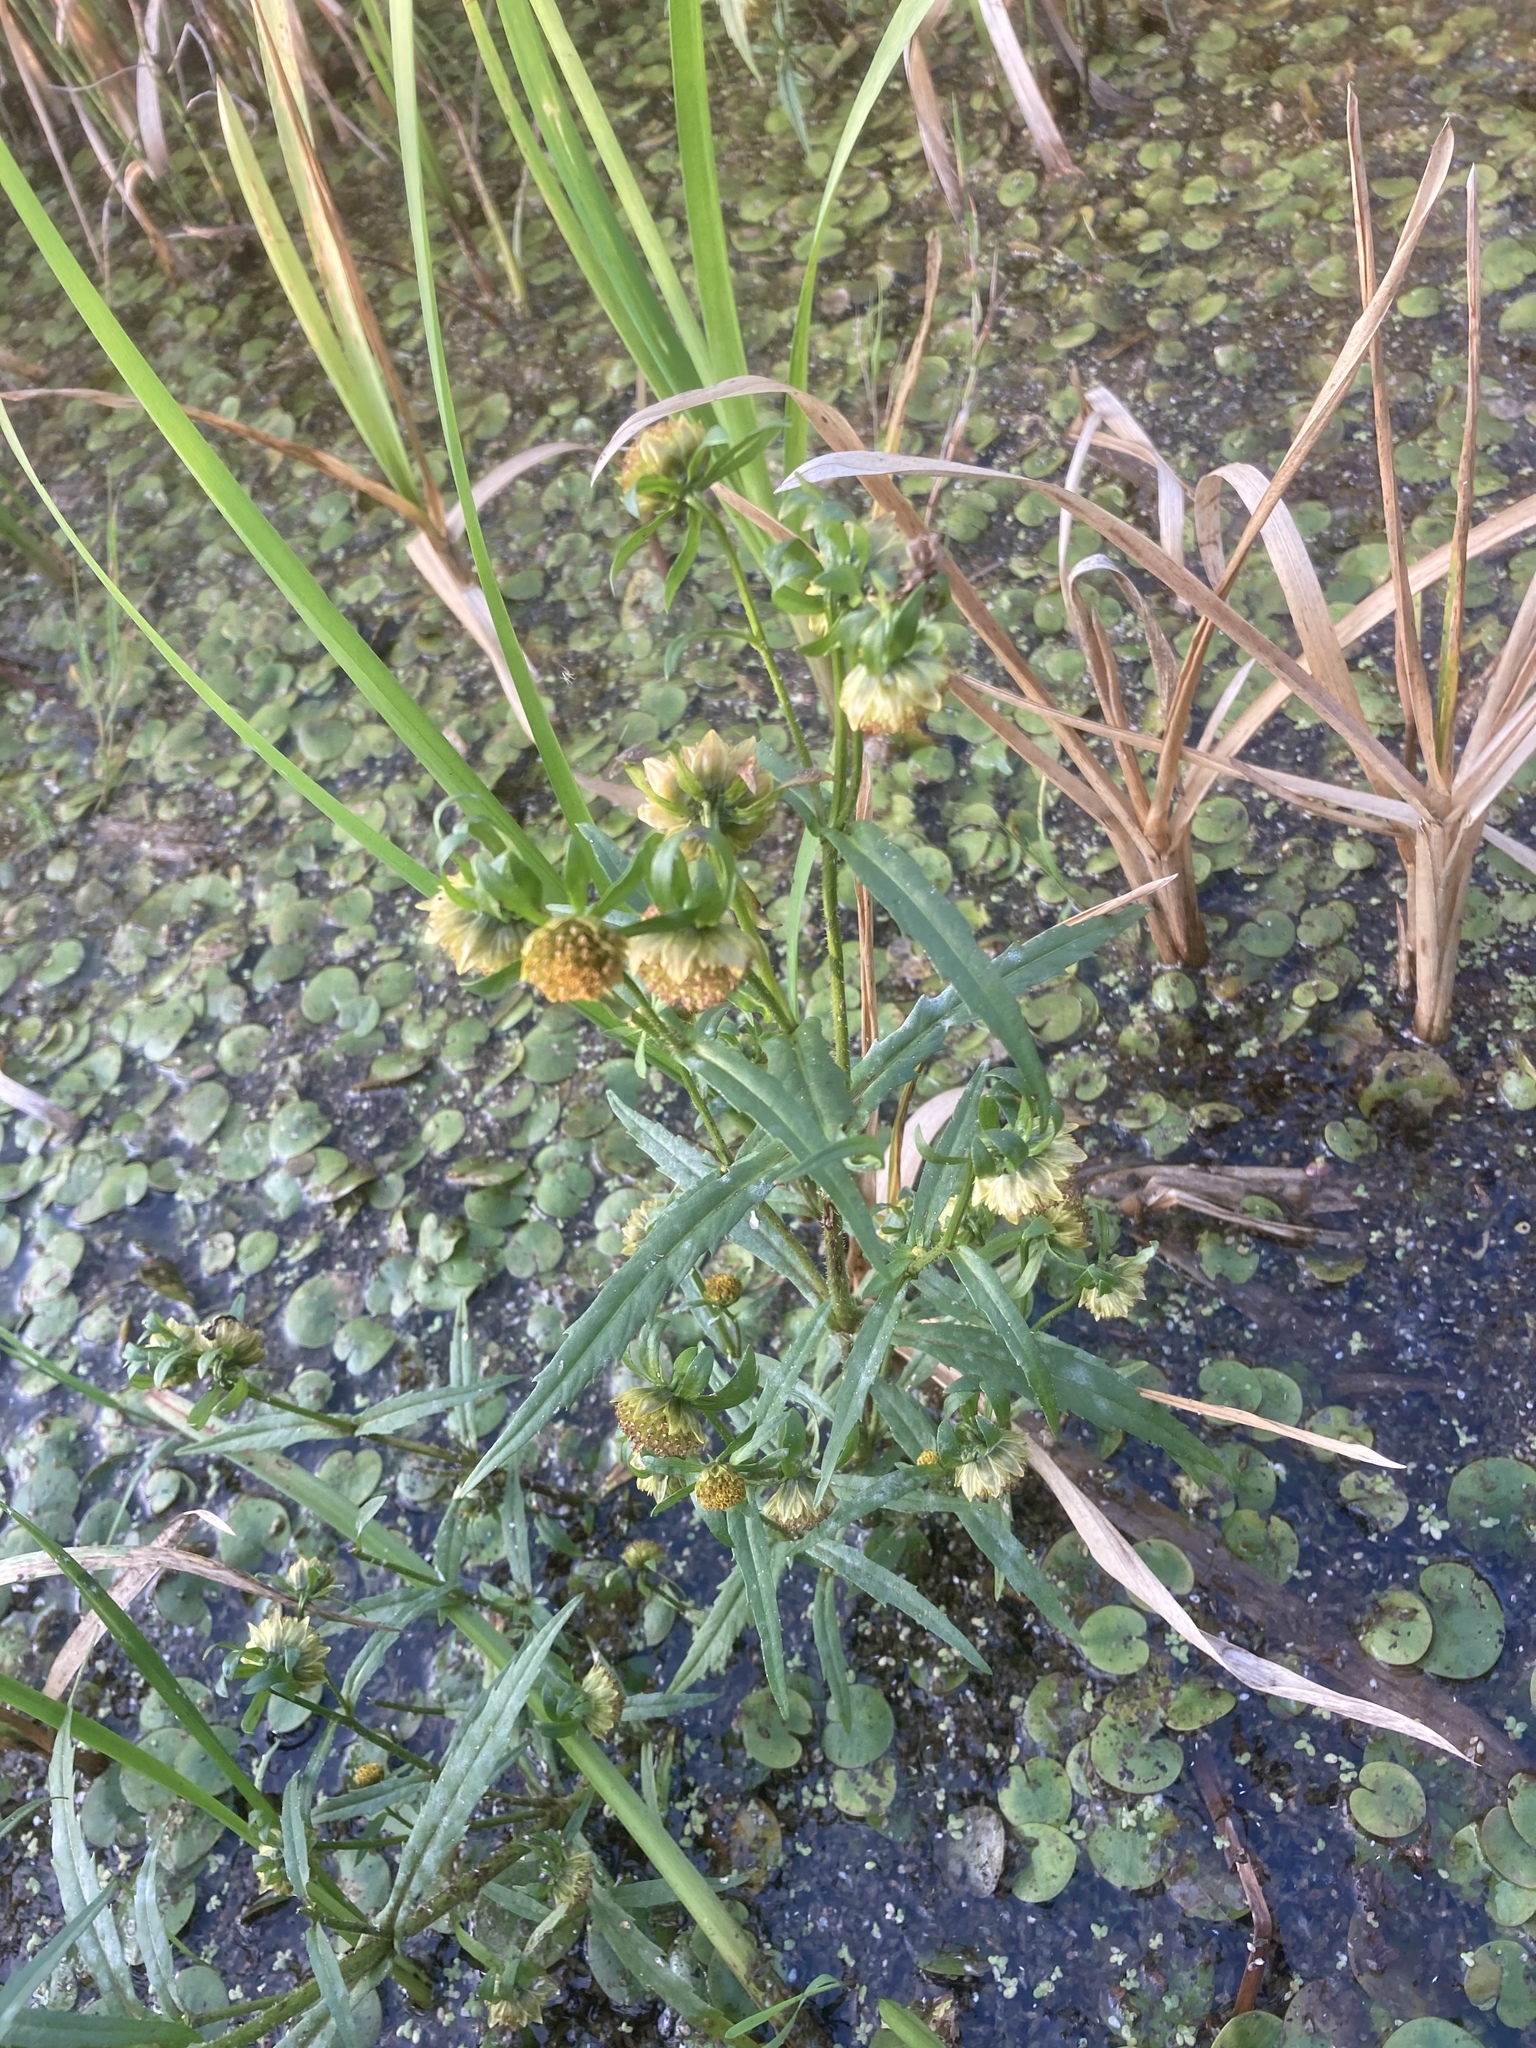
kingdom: Plantae
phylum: Tracheophyta
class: Magnoliopsida
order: Asterales
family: Asteraceae
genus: Bidens
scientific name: Bidens cernua
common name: Nodding bur-marigold
